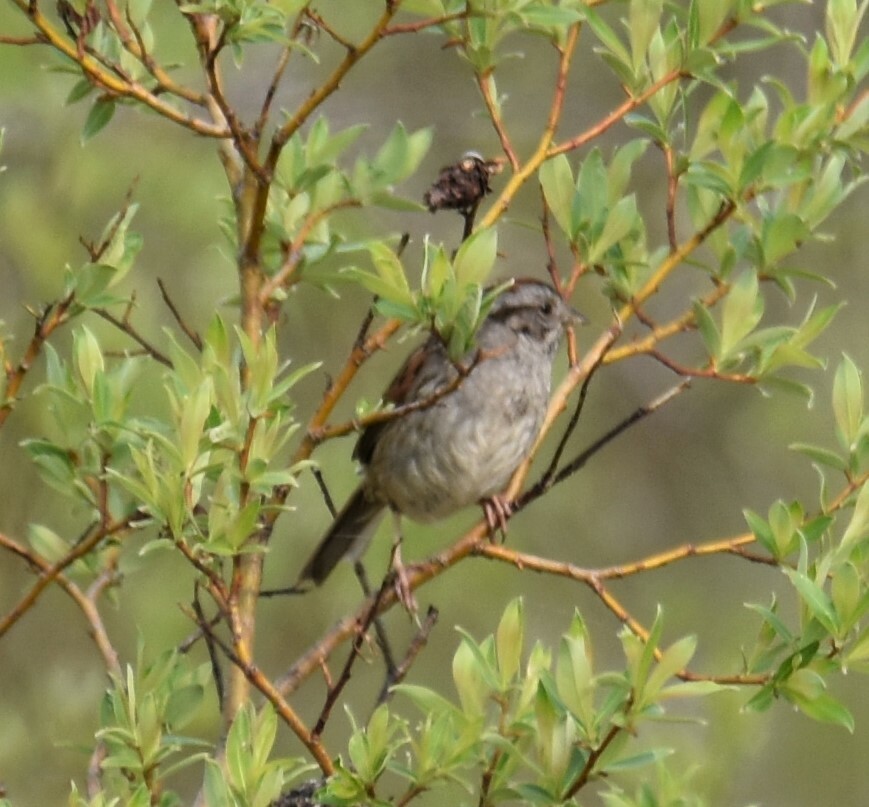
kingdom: Animalia
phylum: Chordata
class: Aves
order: Passeriformes
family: Passerellidae
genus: Melospiza
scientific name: Melospiza georgiana
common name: Swamp sparrow
